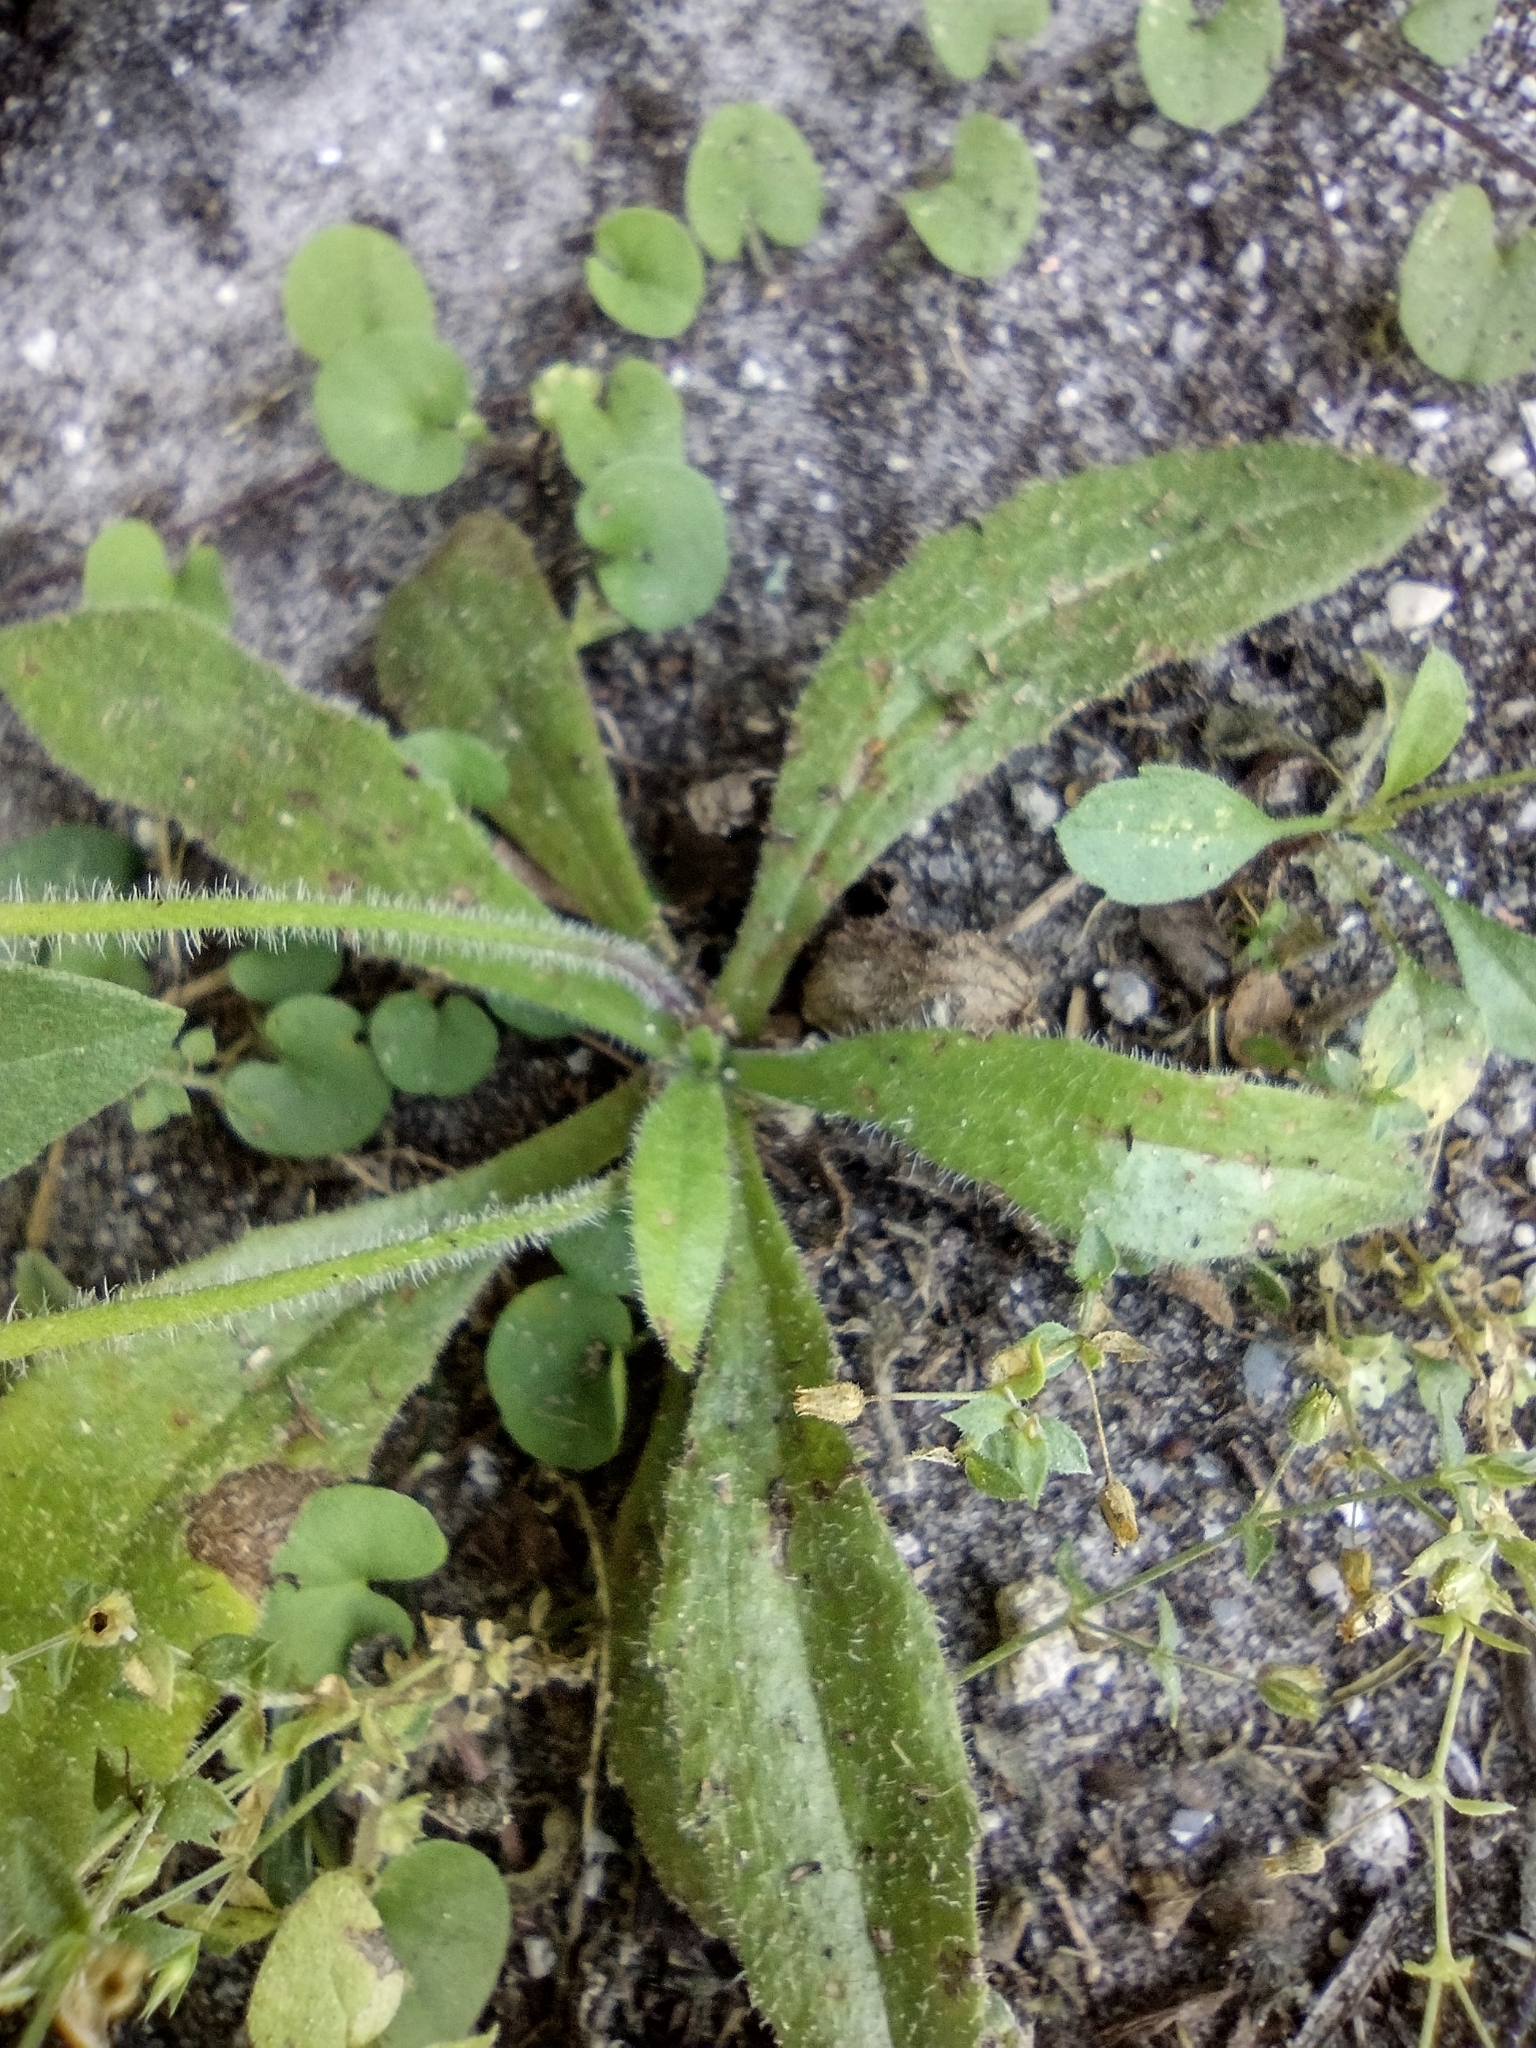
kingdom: Plantae
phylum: Tracheophyta
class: Magnoliopsida
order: Lamiales
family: Plantaginaceae
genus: Plantago
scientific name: Plantago virginica
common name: Hoary plantain
